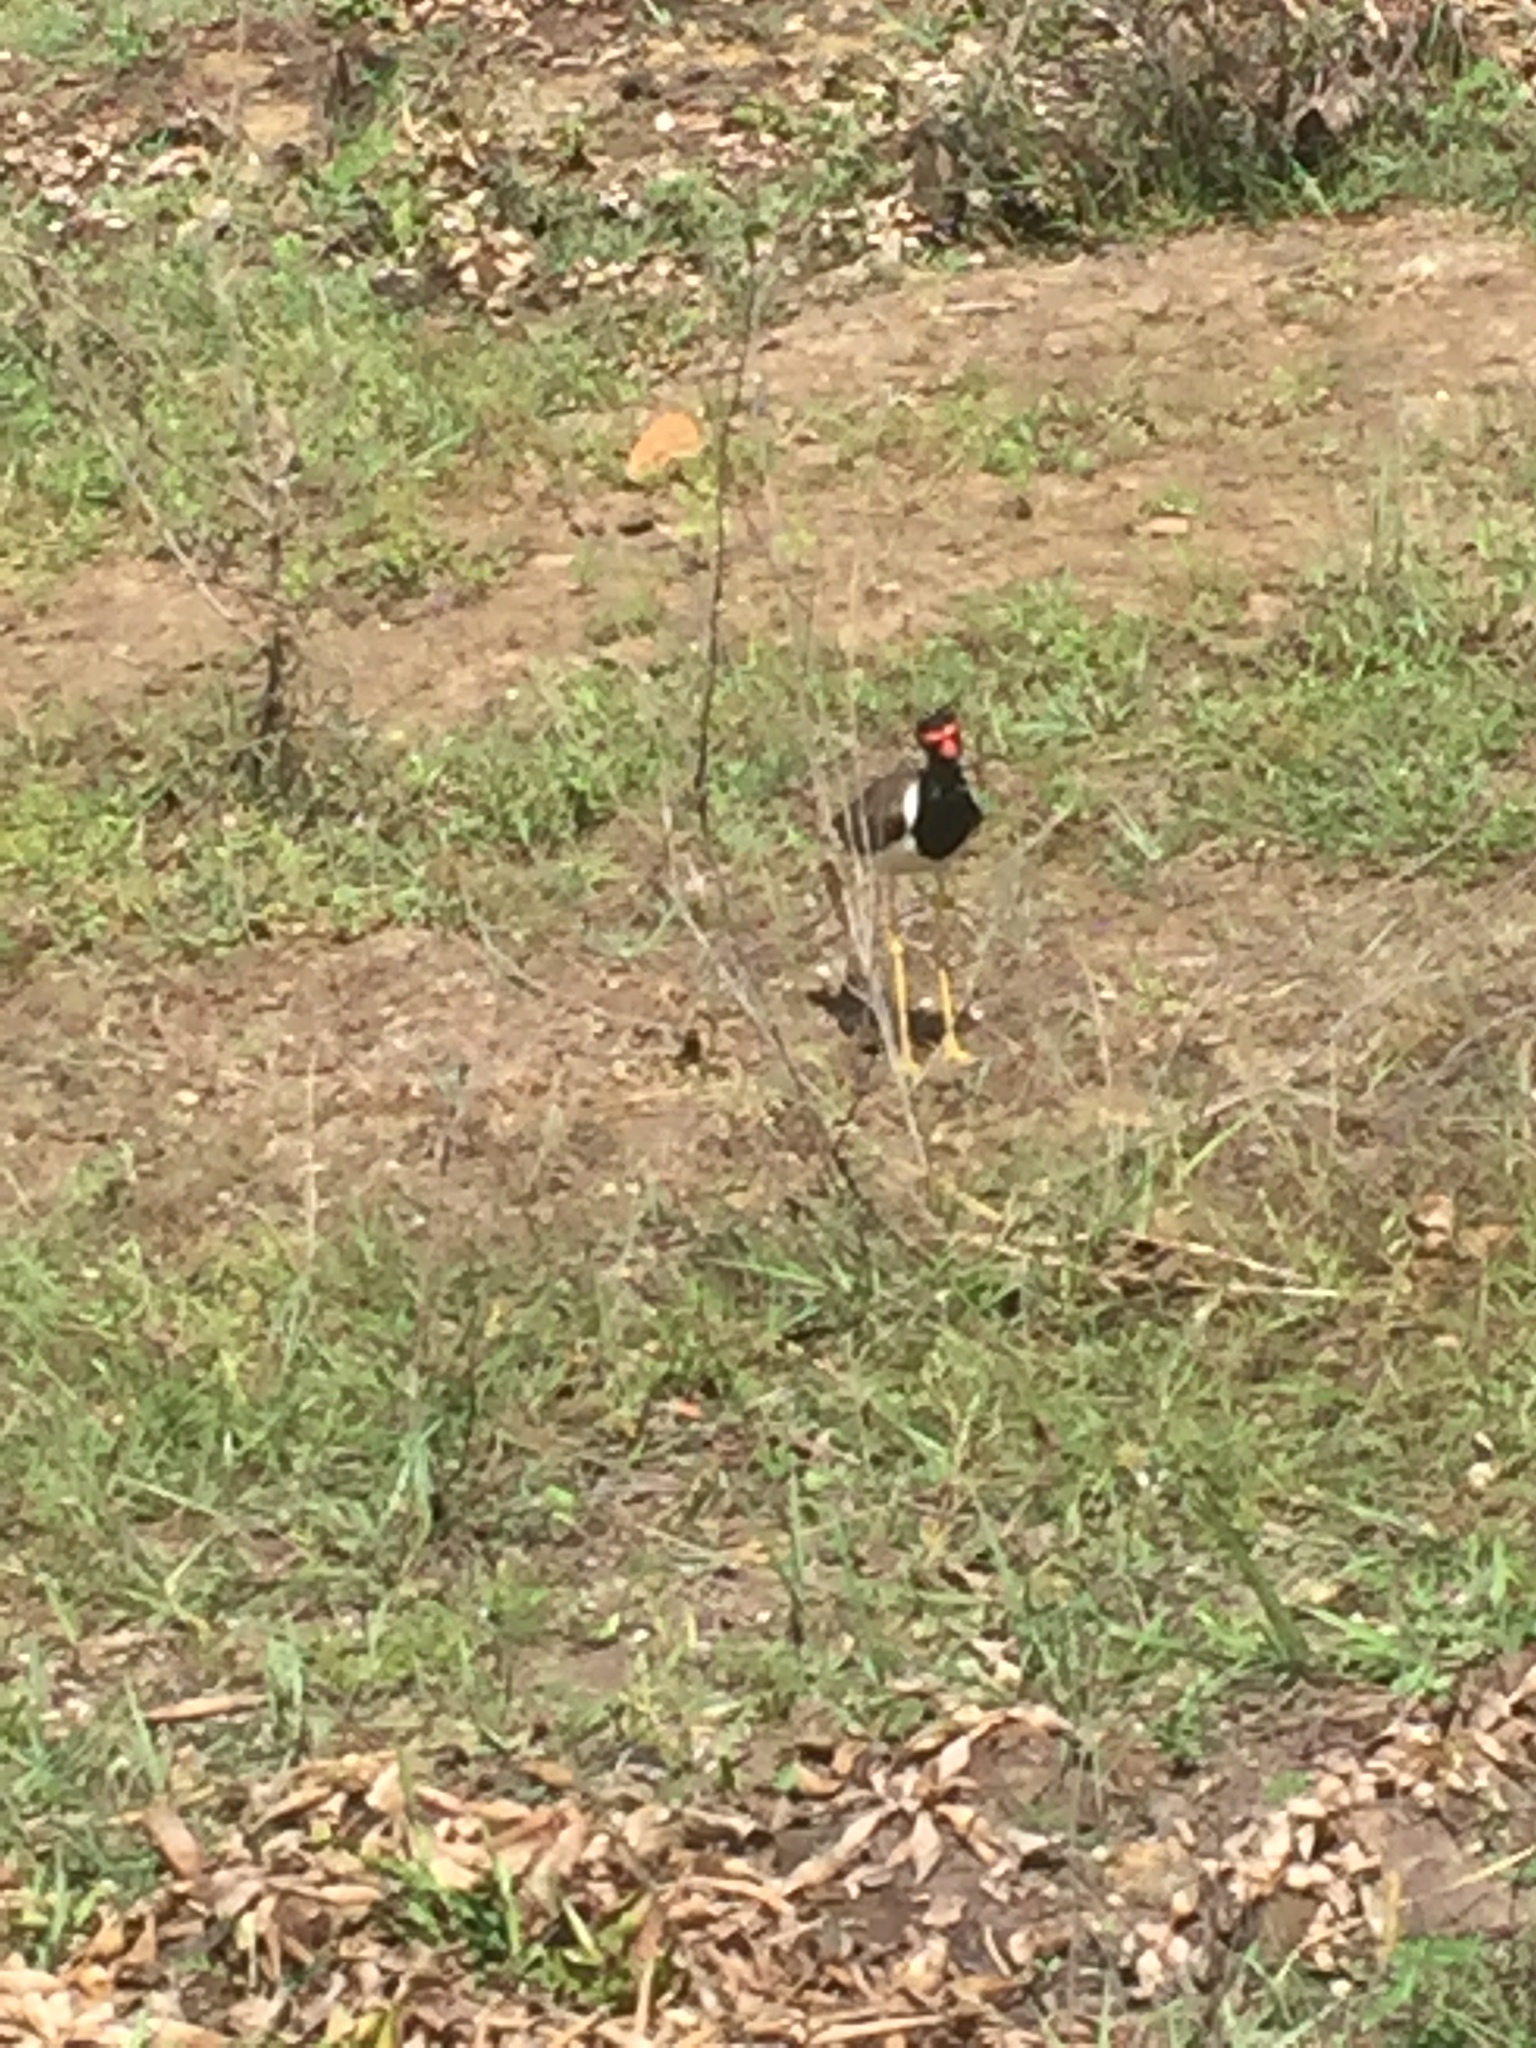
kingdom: Animalia
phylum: Chordata
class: Aves
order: Charadriiformes
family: Charadriidae
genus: Vanellus
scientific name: Vanellus indicus
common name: Red-wattled lapwing
